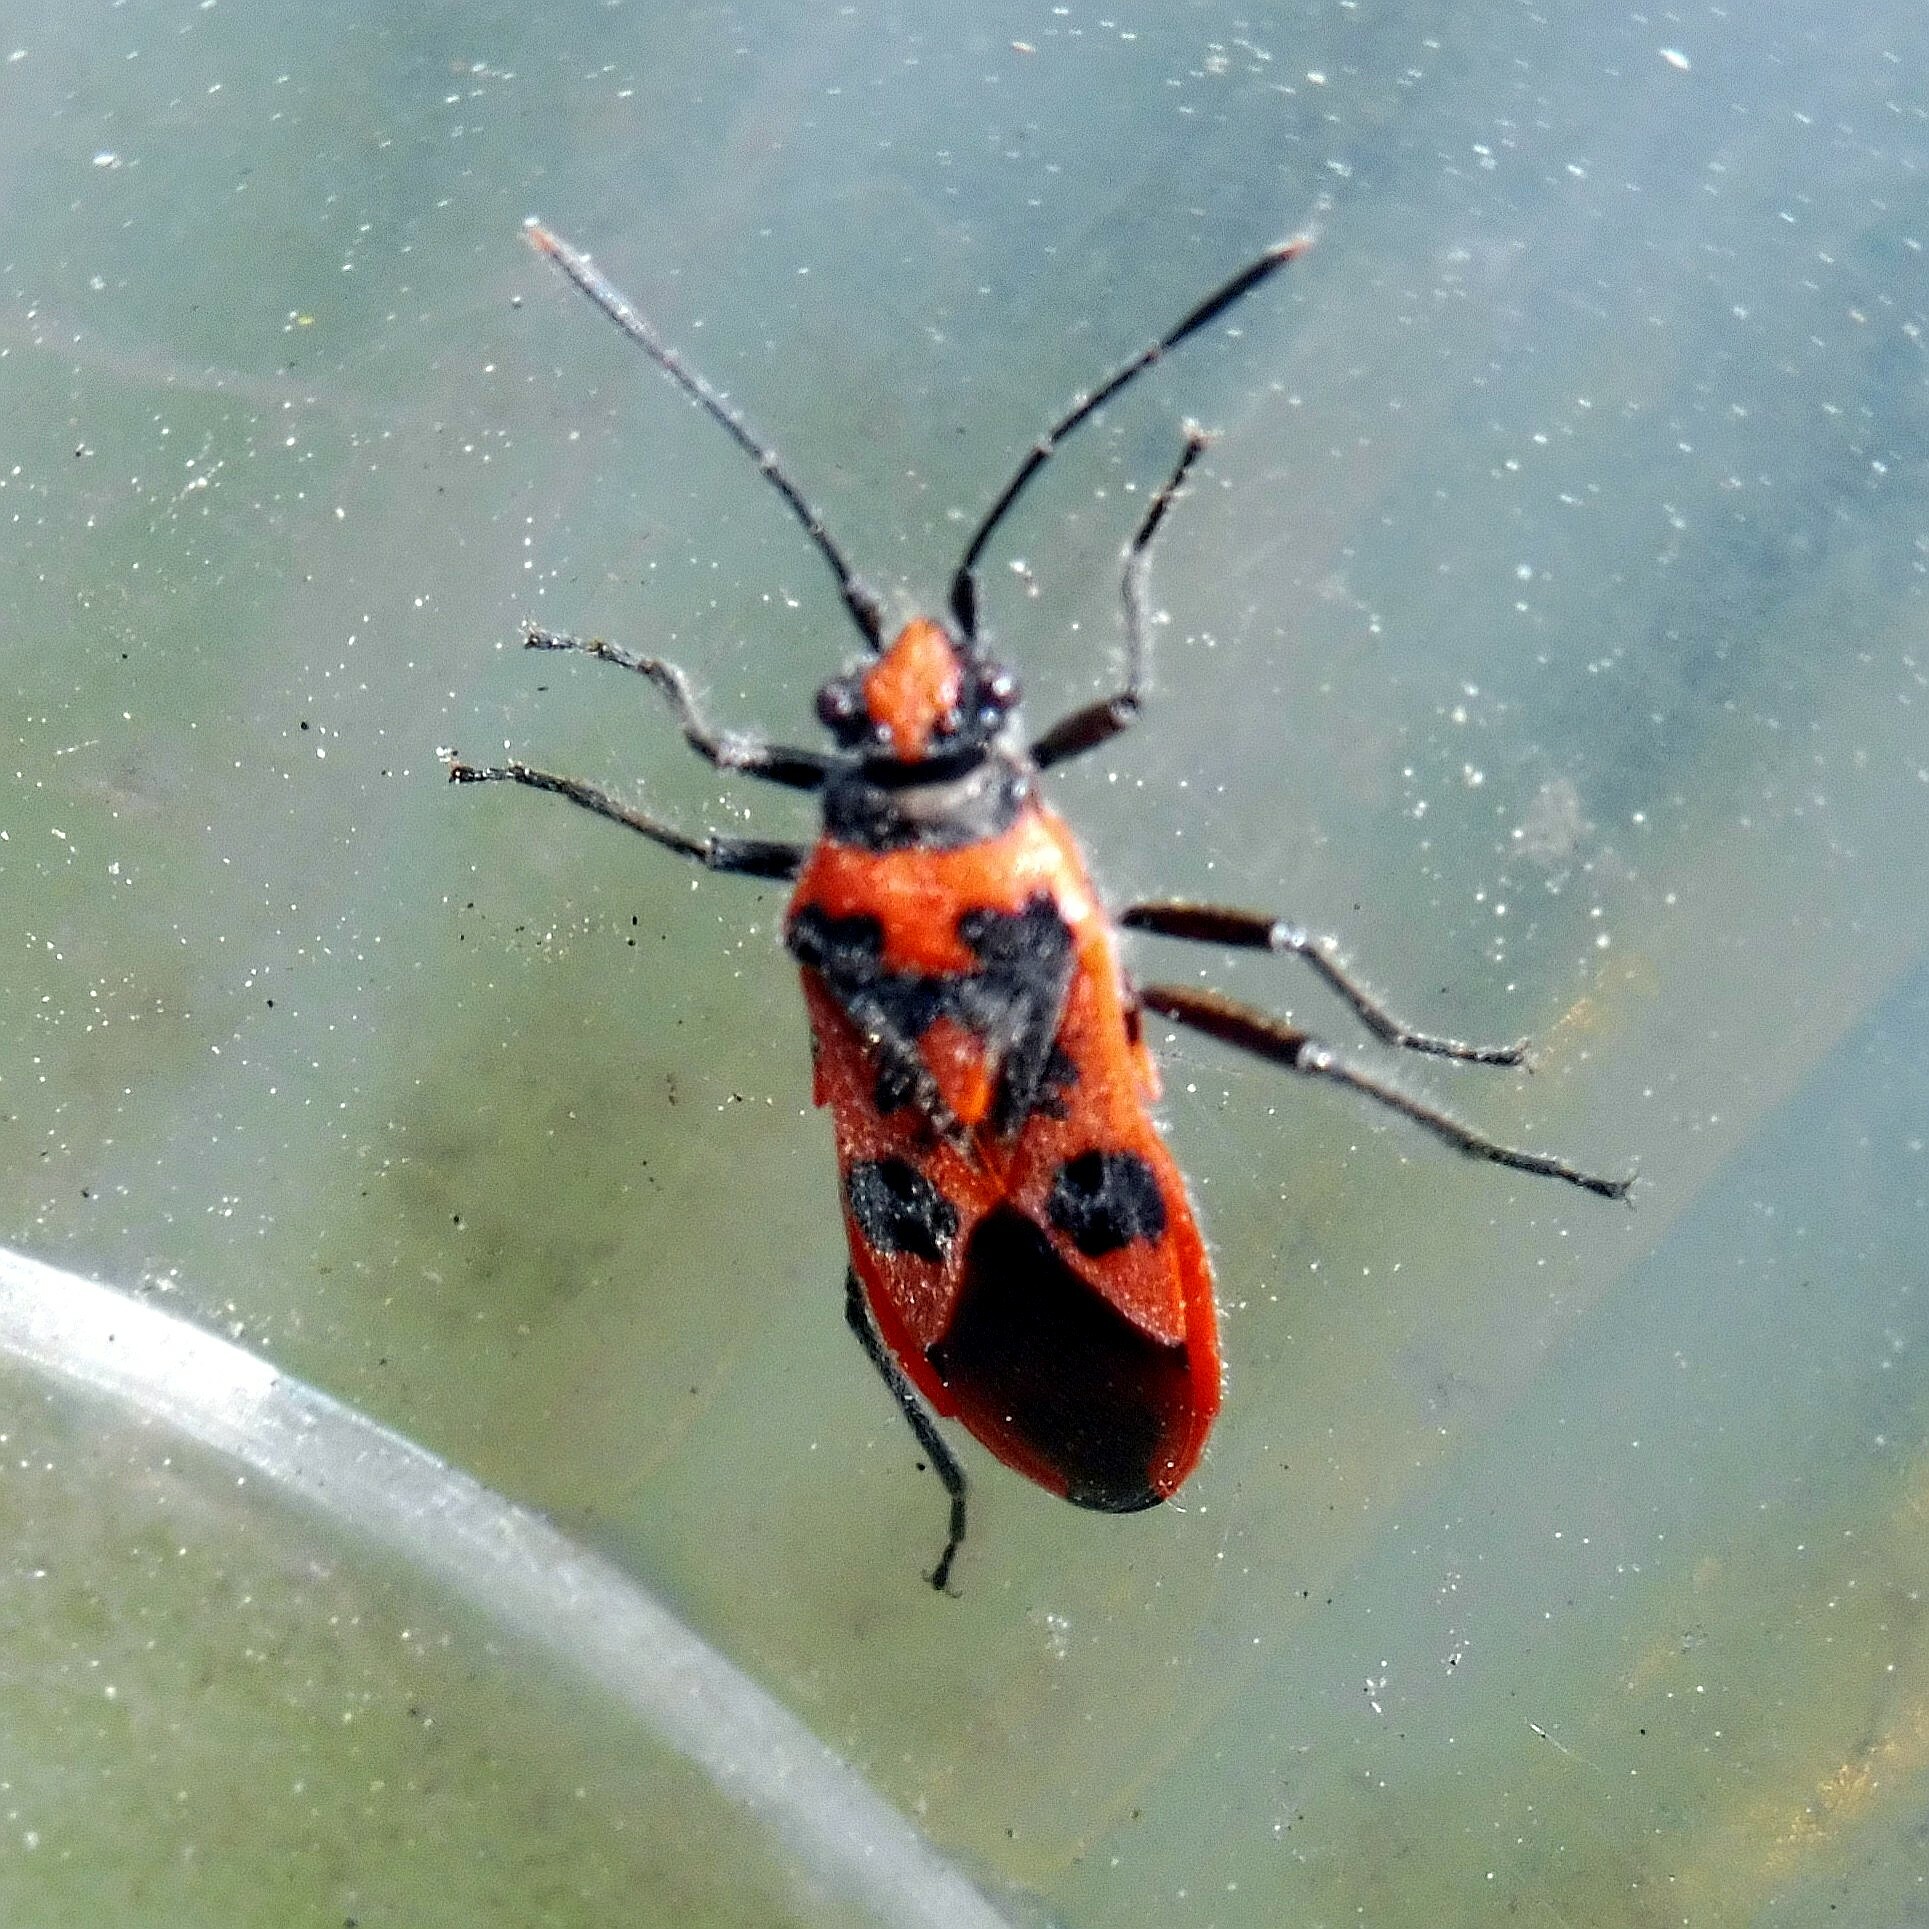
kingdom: Animalia
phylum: Arthropoda
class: Insecta
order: Hemiptera
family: Rhopalidae
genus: Corizus
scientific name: Corizus hyoscyami
